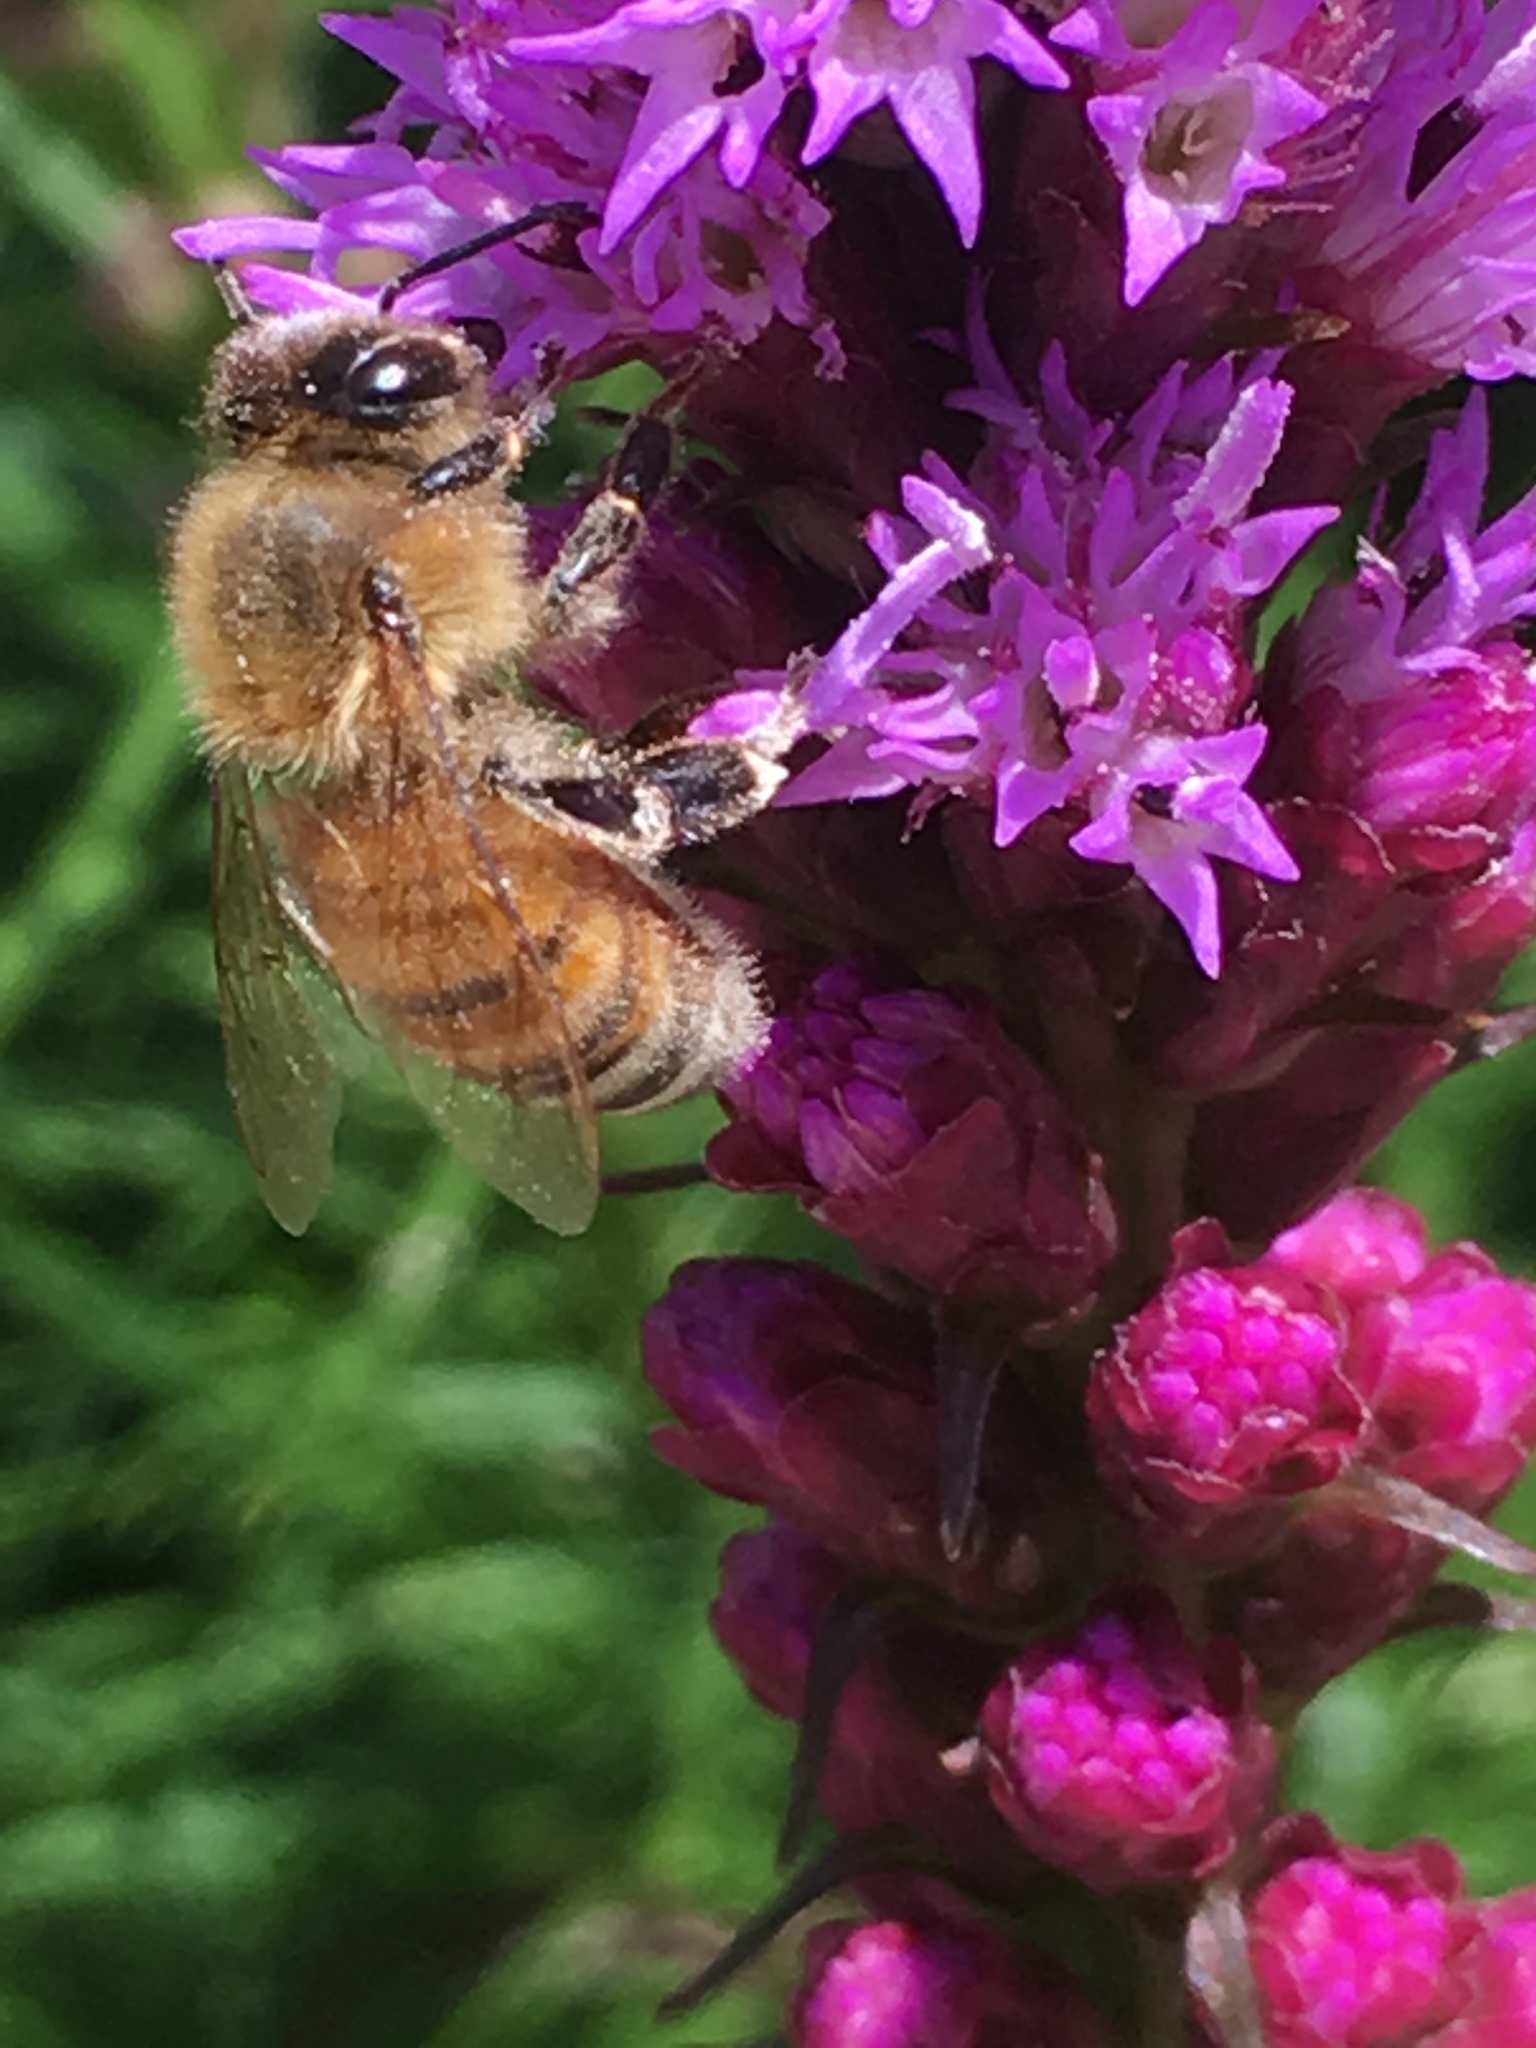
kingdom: Animalia
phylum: Arthropoda
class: Insecta
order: Hymenoptera
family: Apidae
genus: Apis
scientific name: Apis mellifera
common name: Honey bee
